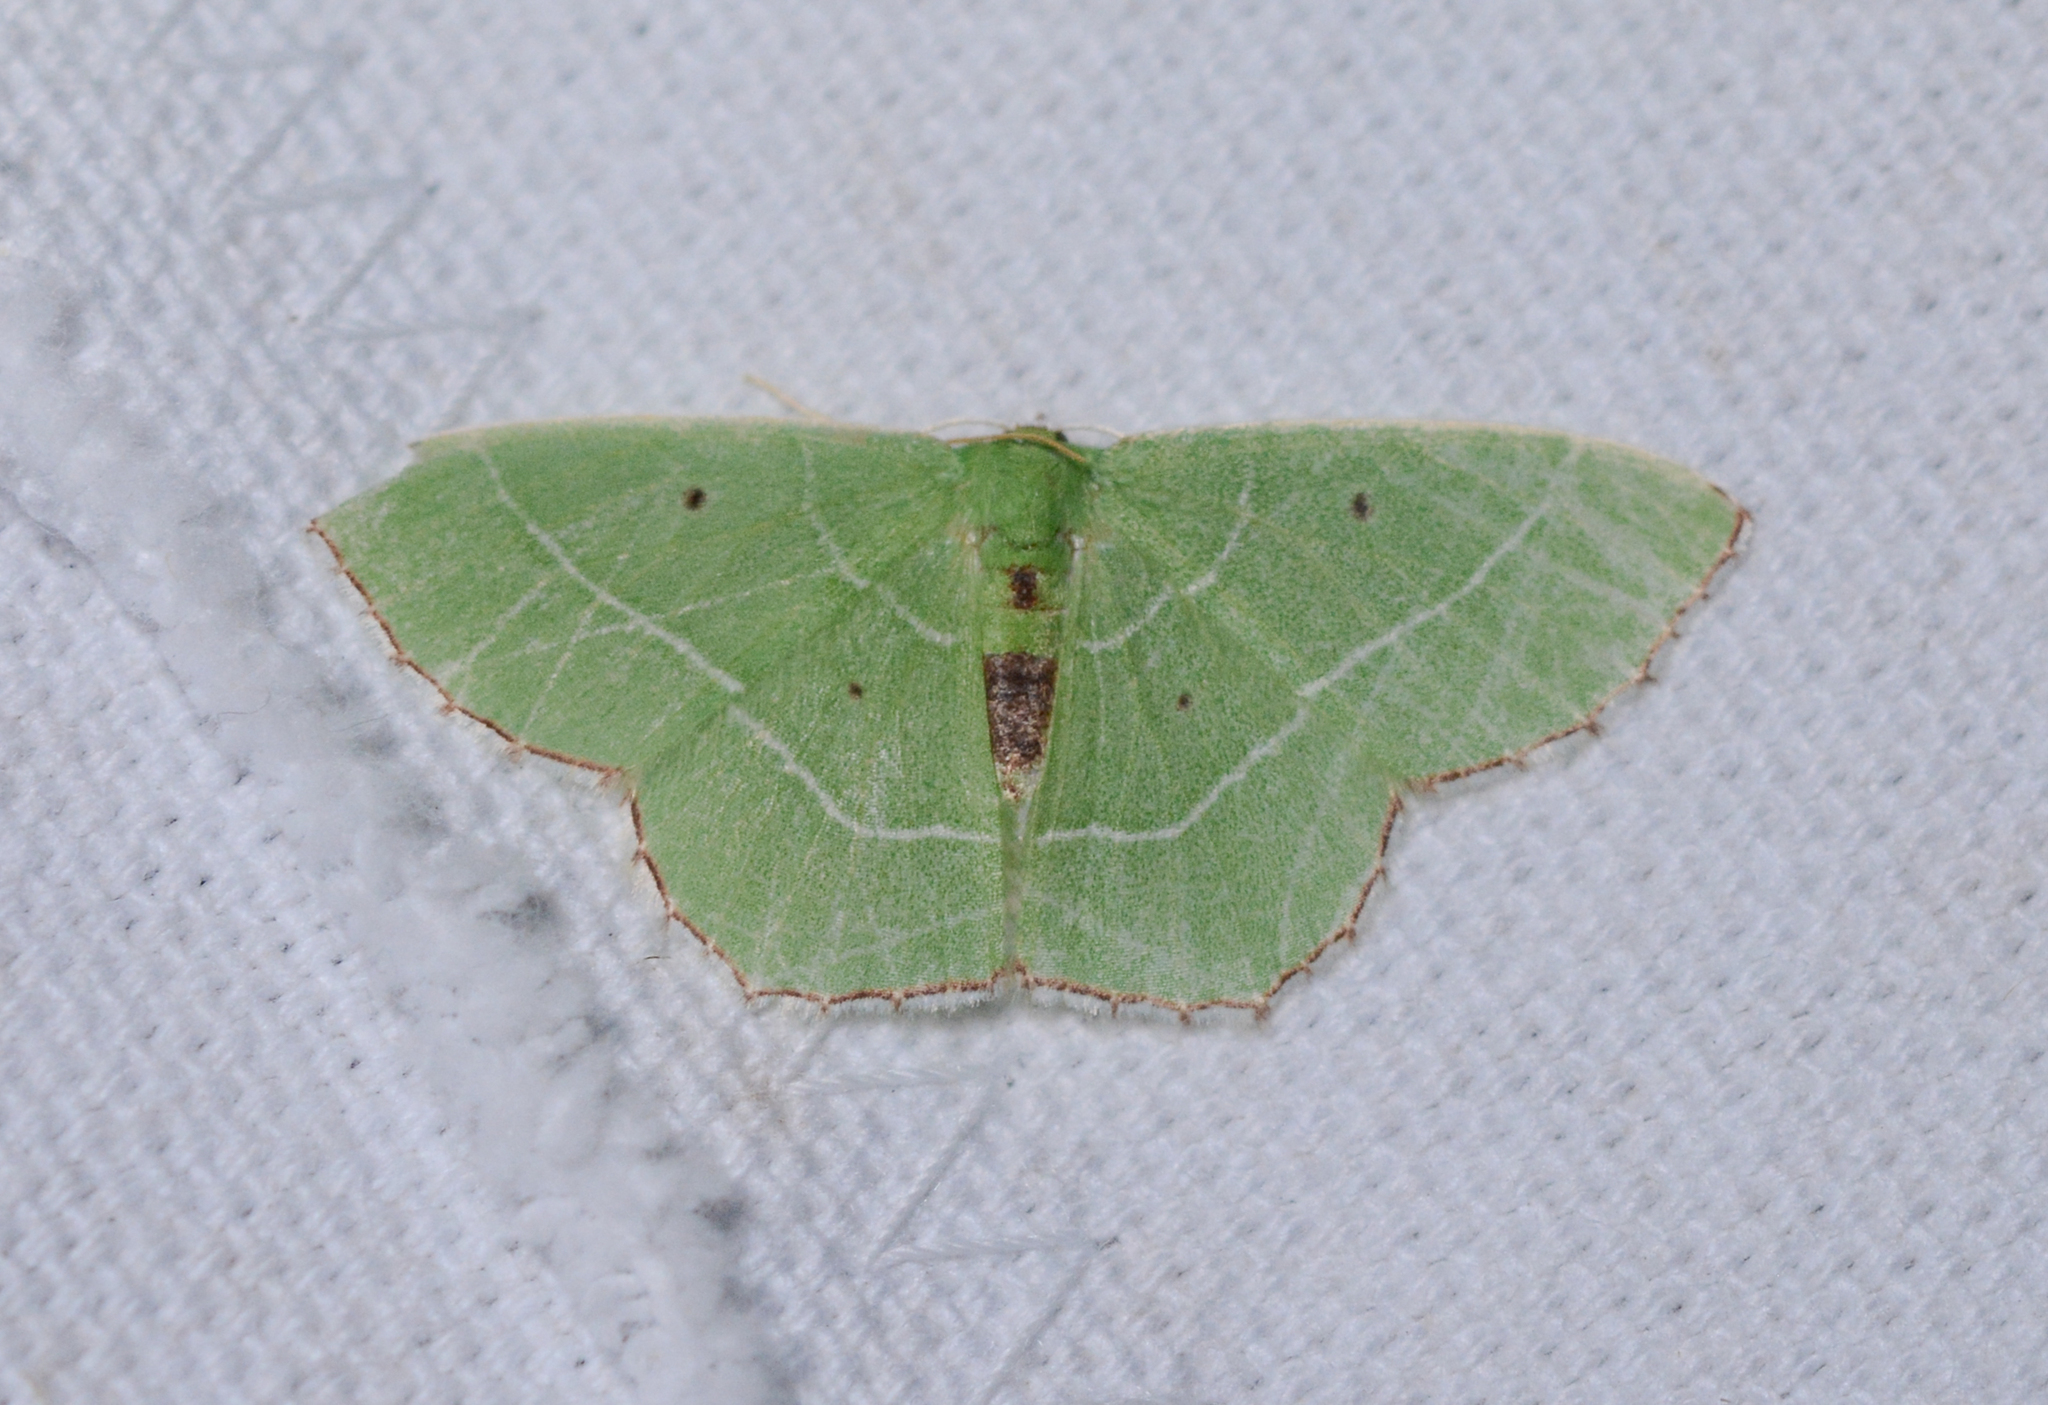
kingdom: Animalia
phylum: Arthropoda
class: Insecta
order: Lepidoptera
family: Geometridae
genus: Nemoria
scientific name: Nemoria saturiba
